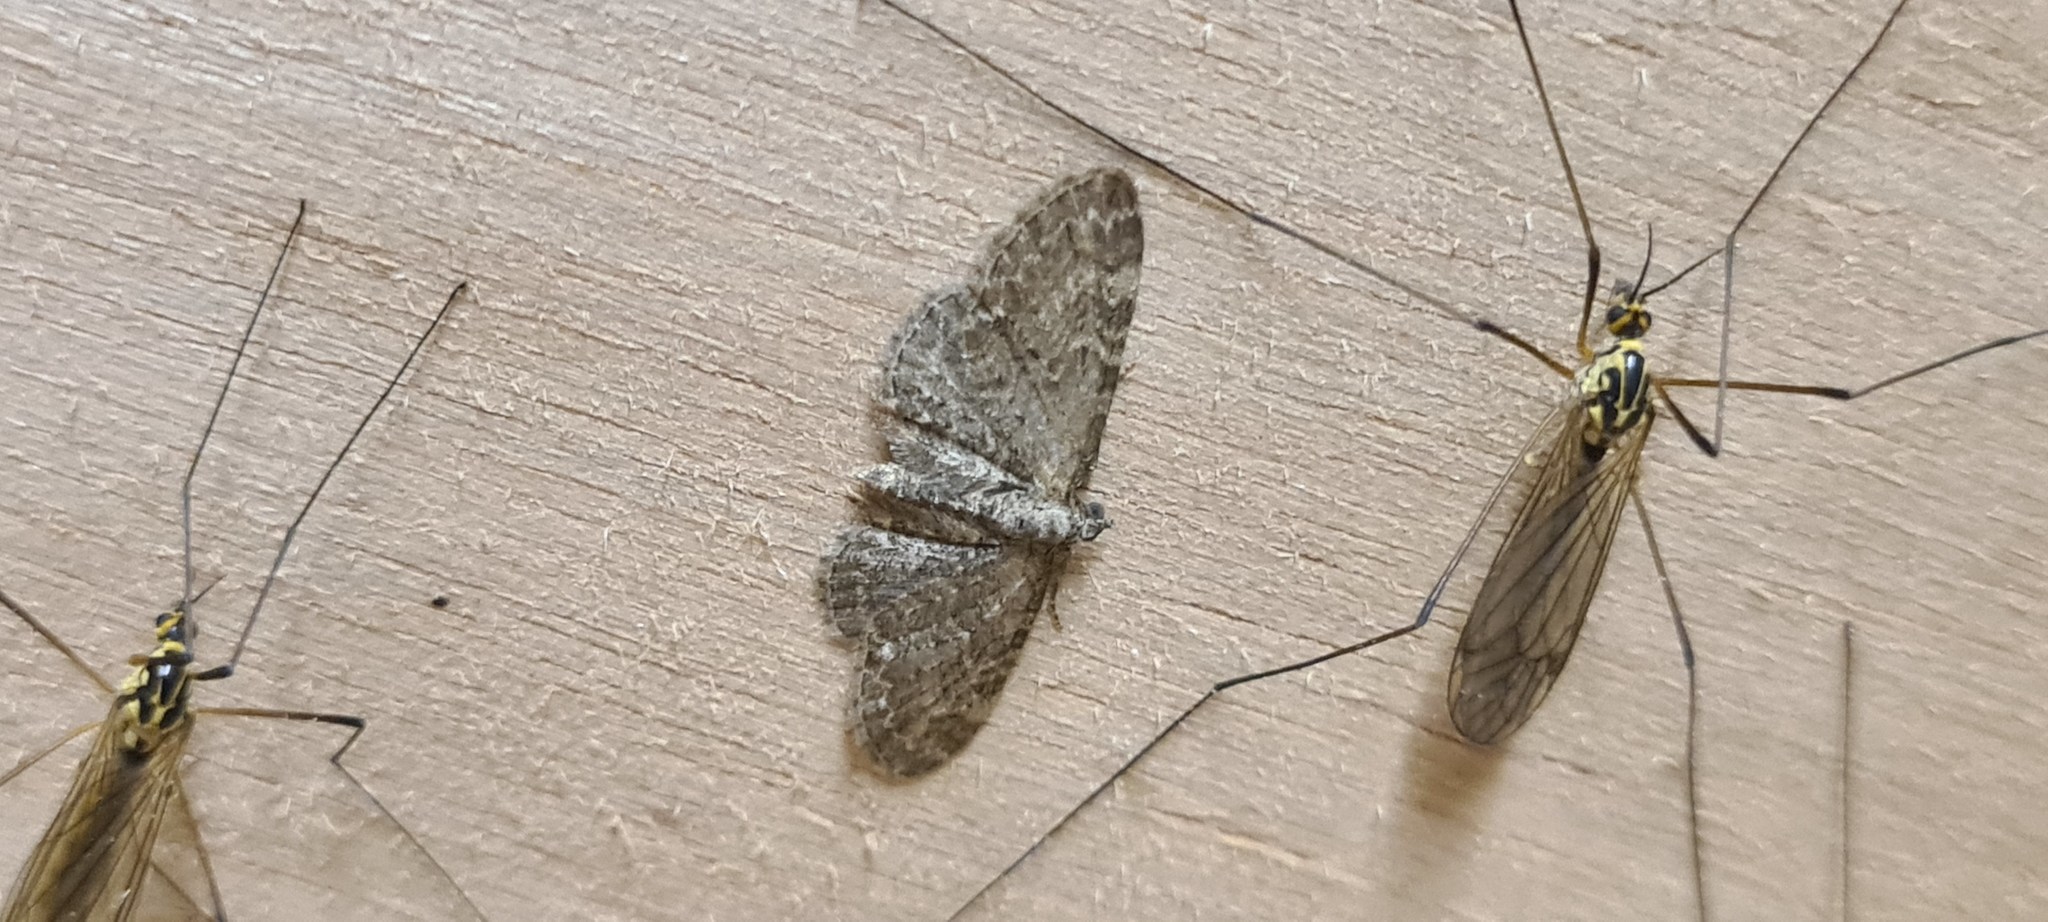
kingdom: Animalia
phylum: Arthropoda
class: Insecta
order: Lepidoptera
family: Geometridae
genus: Eupithecia
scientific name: Eupithecia vulgata
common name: Common pug
